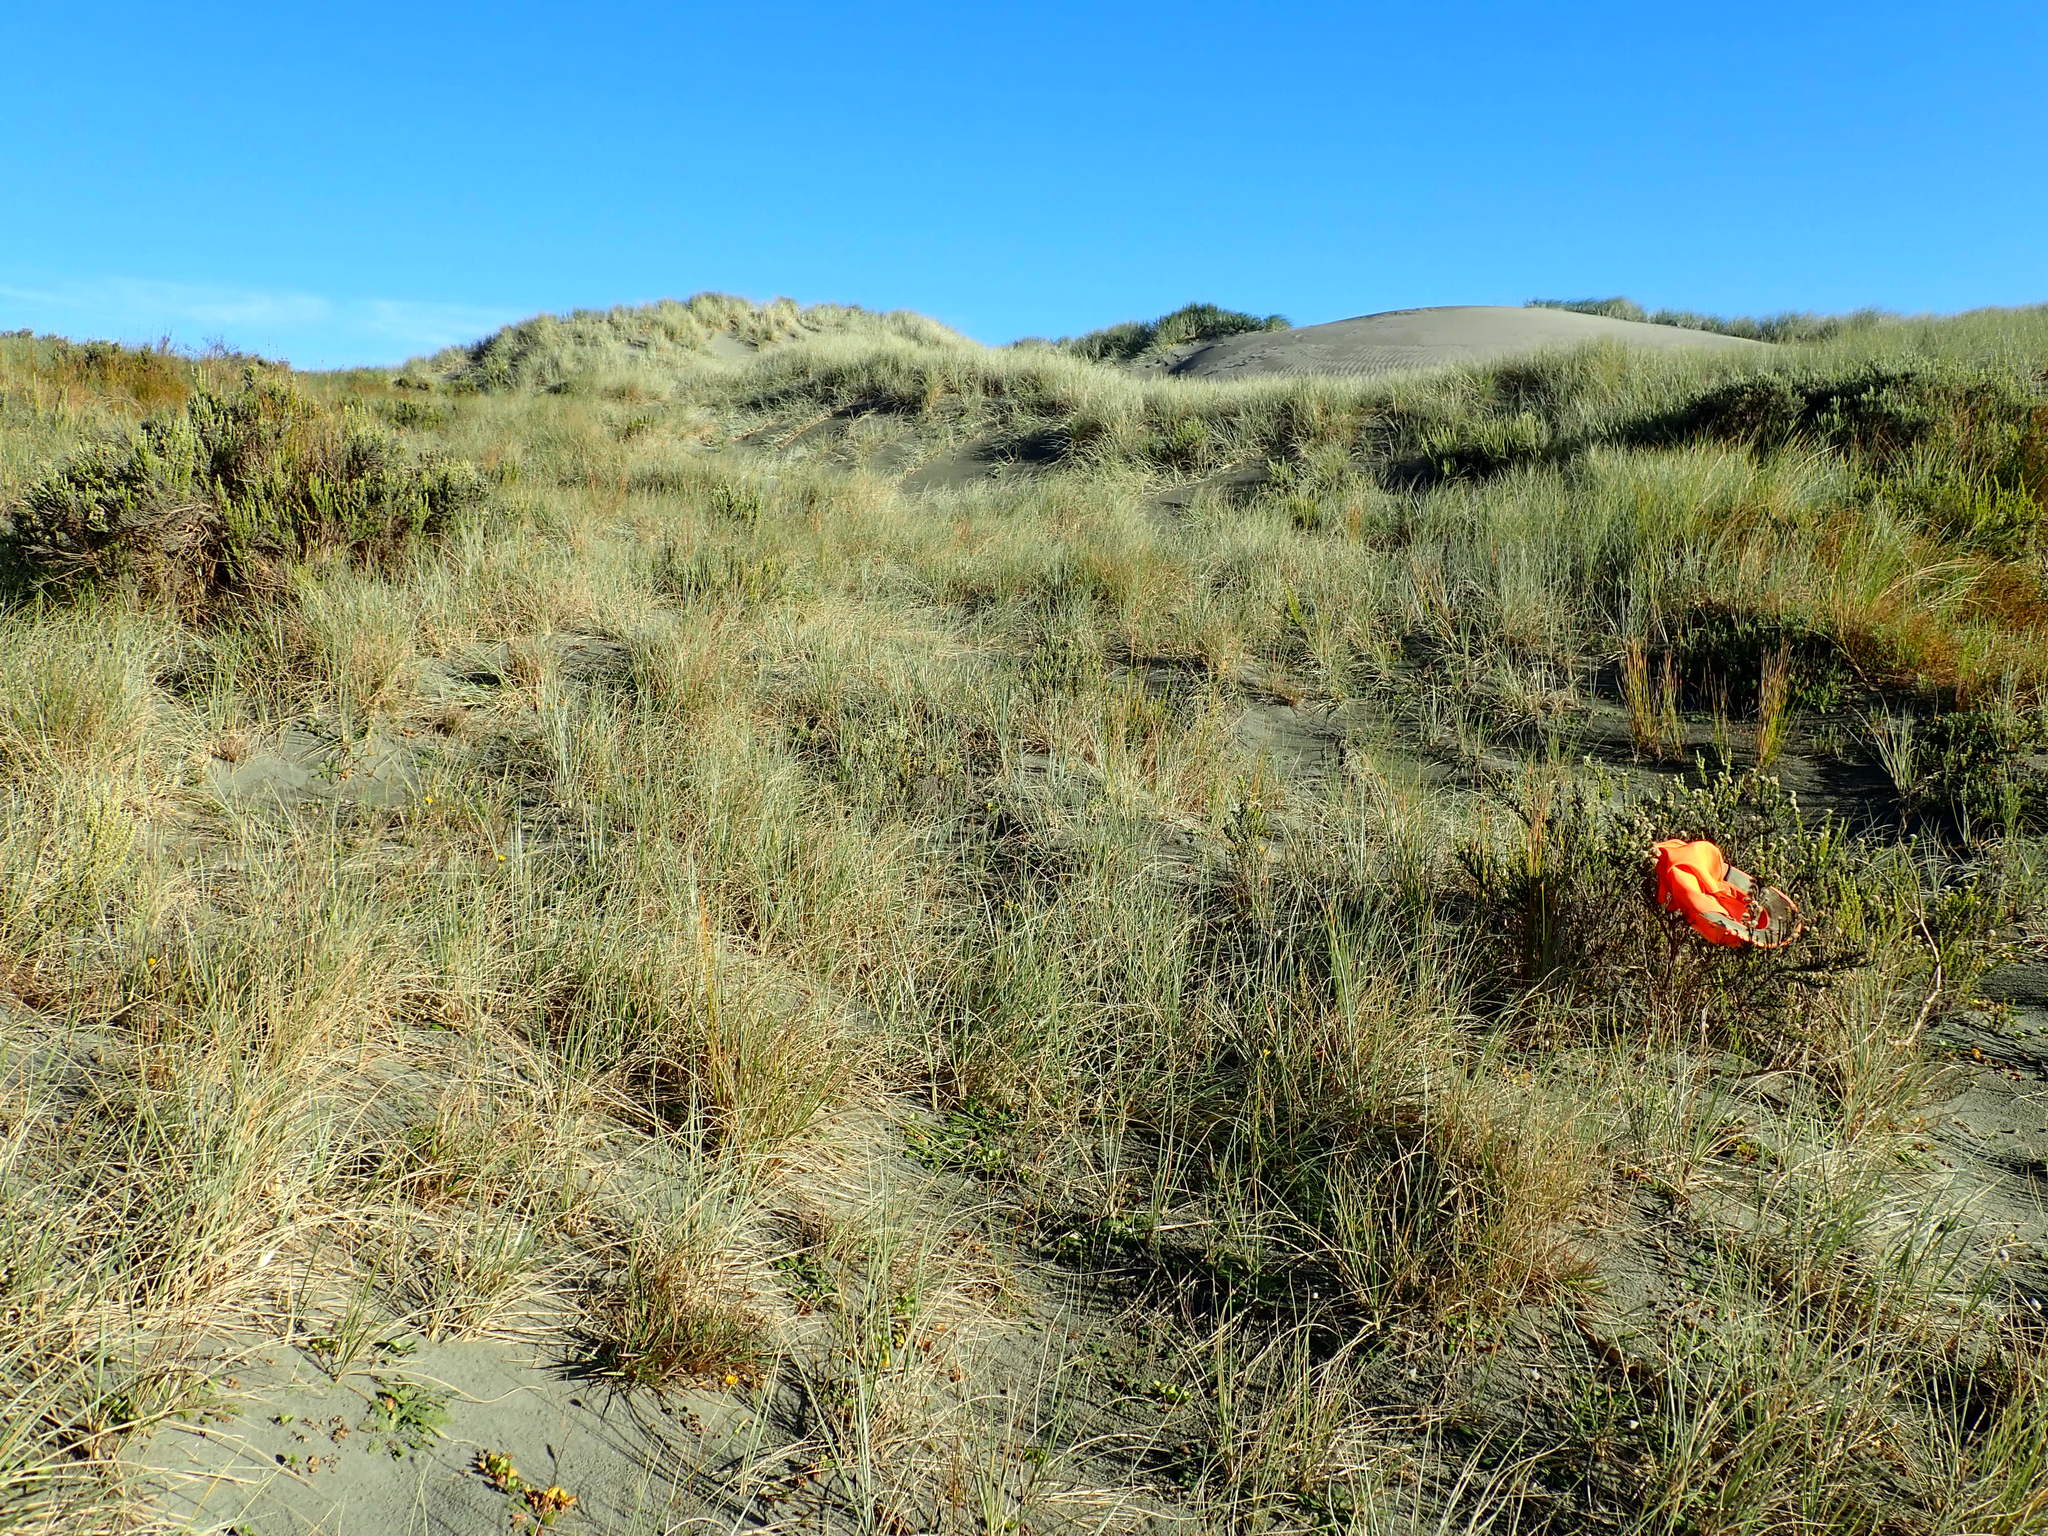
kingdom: Plantae
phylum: Tracheophyta
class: Magnoliopsida
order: Asterales
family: Asteraceae
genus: Ozothamnus
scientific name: Ozothamnus leptophyllus
